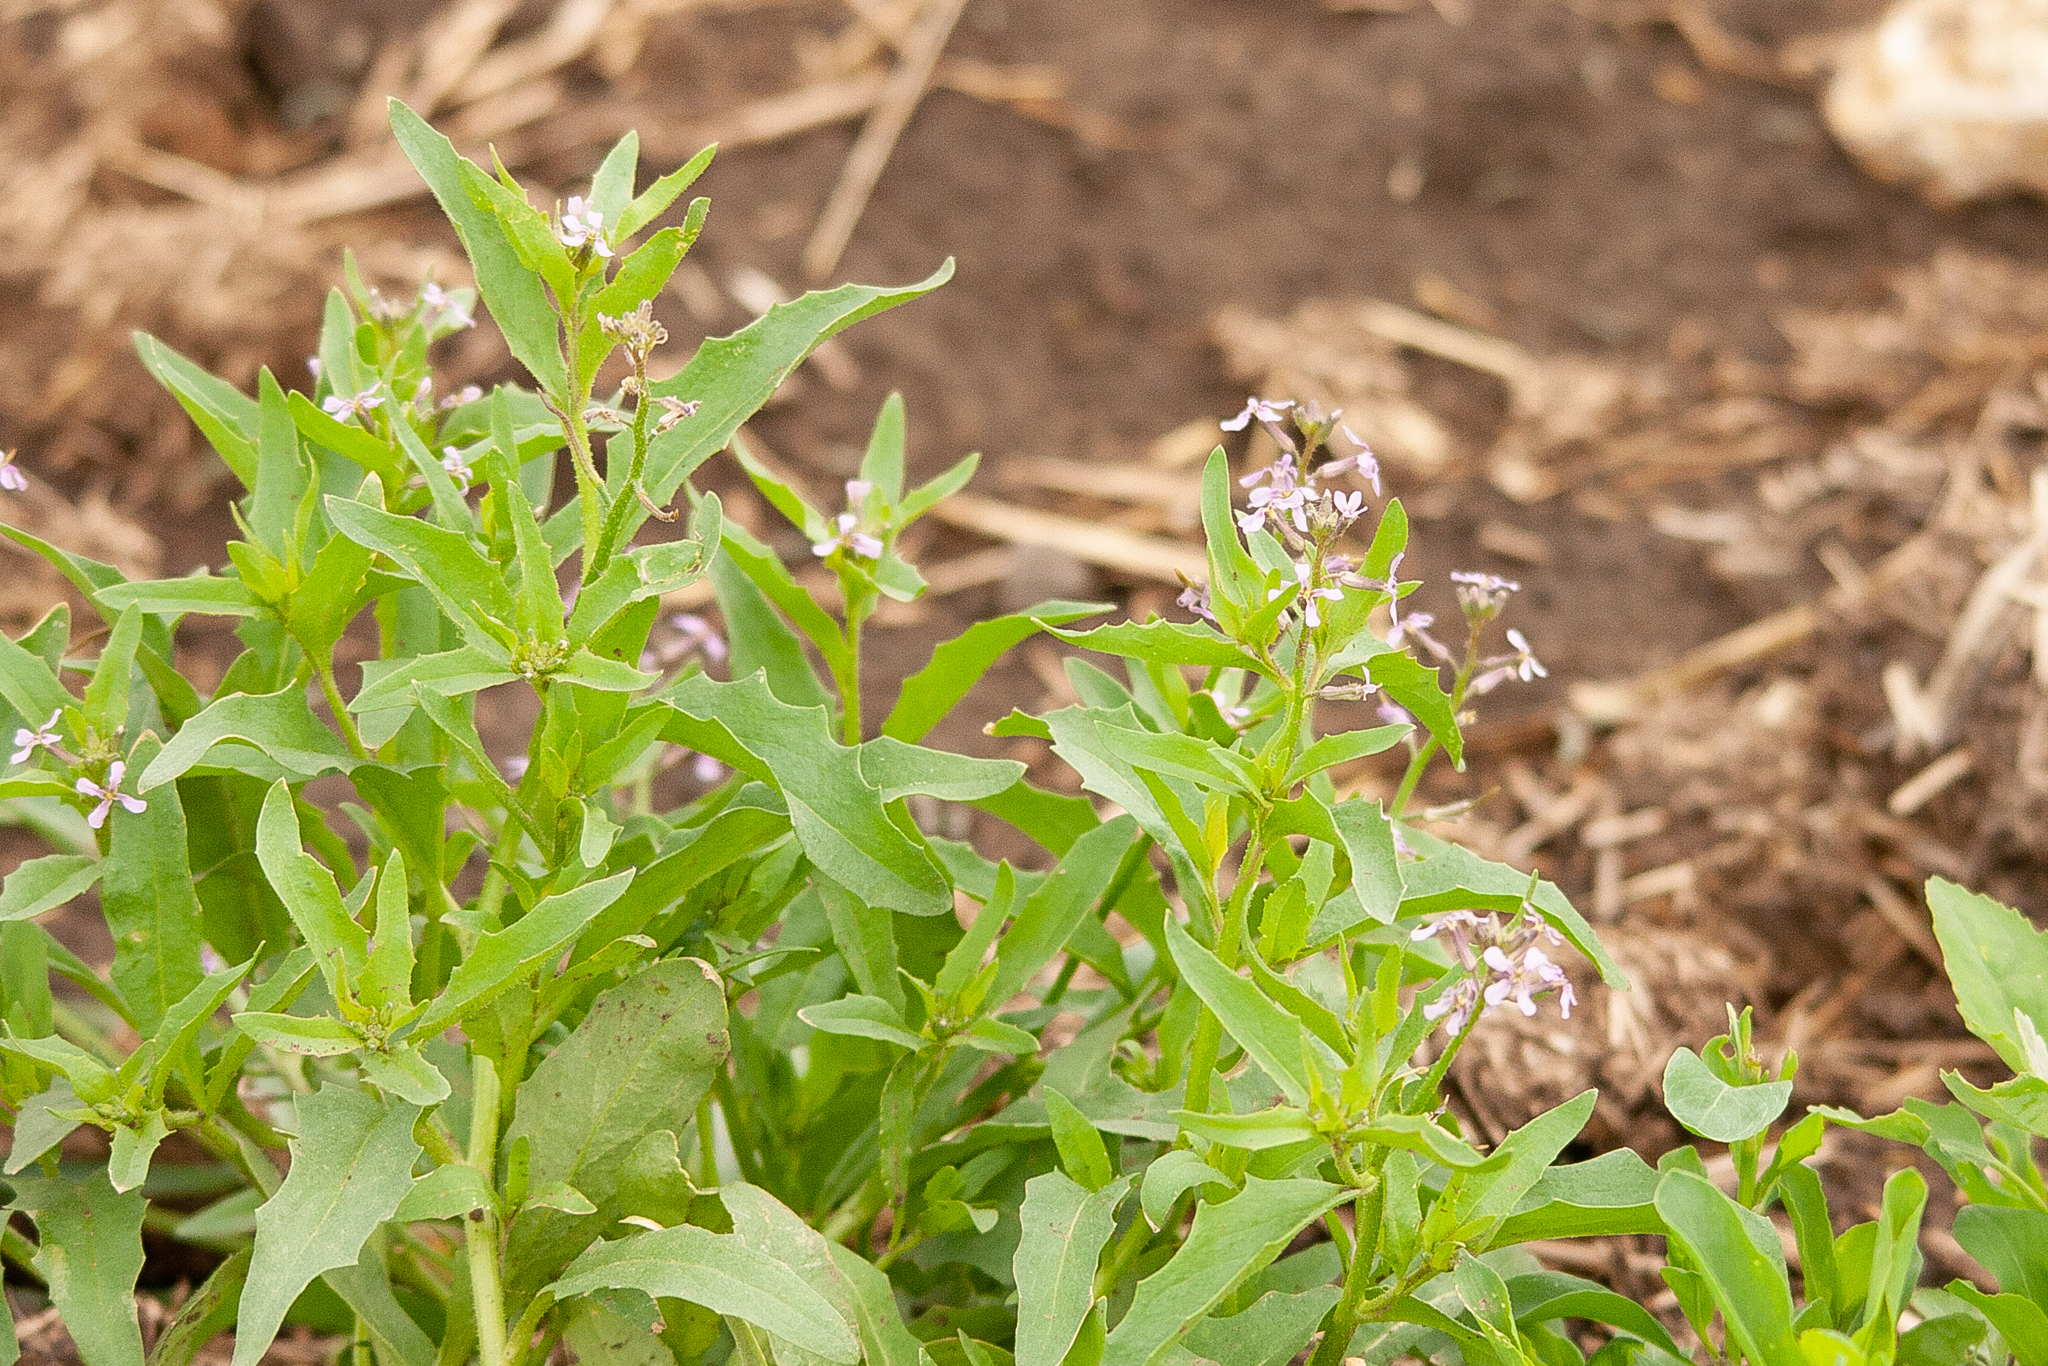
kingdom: Plantae
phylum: Tracheophyta
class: Magnoliopsida
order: Brassicales
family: Brassicaceae
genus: Chorispora
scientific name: Chorispora tenella
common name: Crossflower
